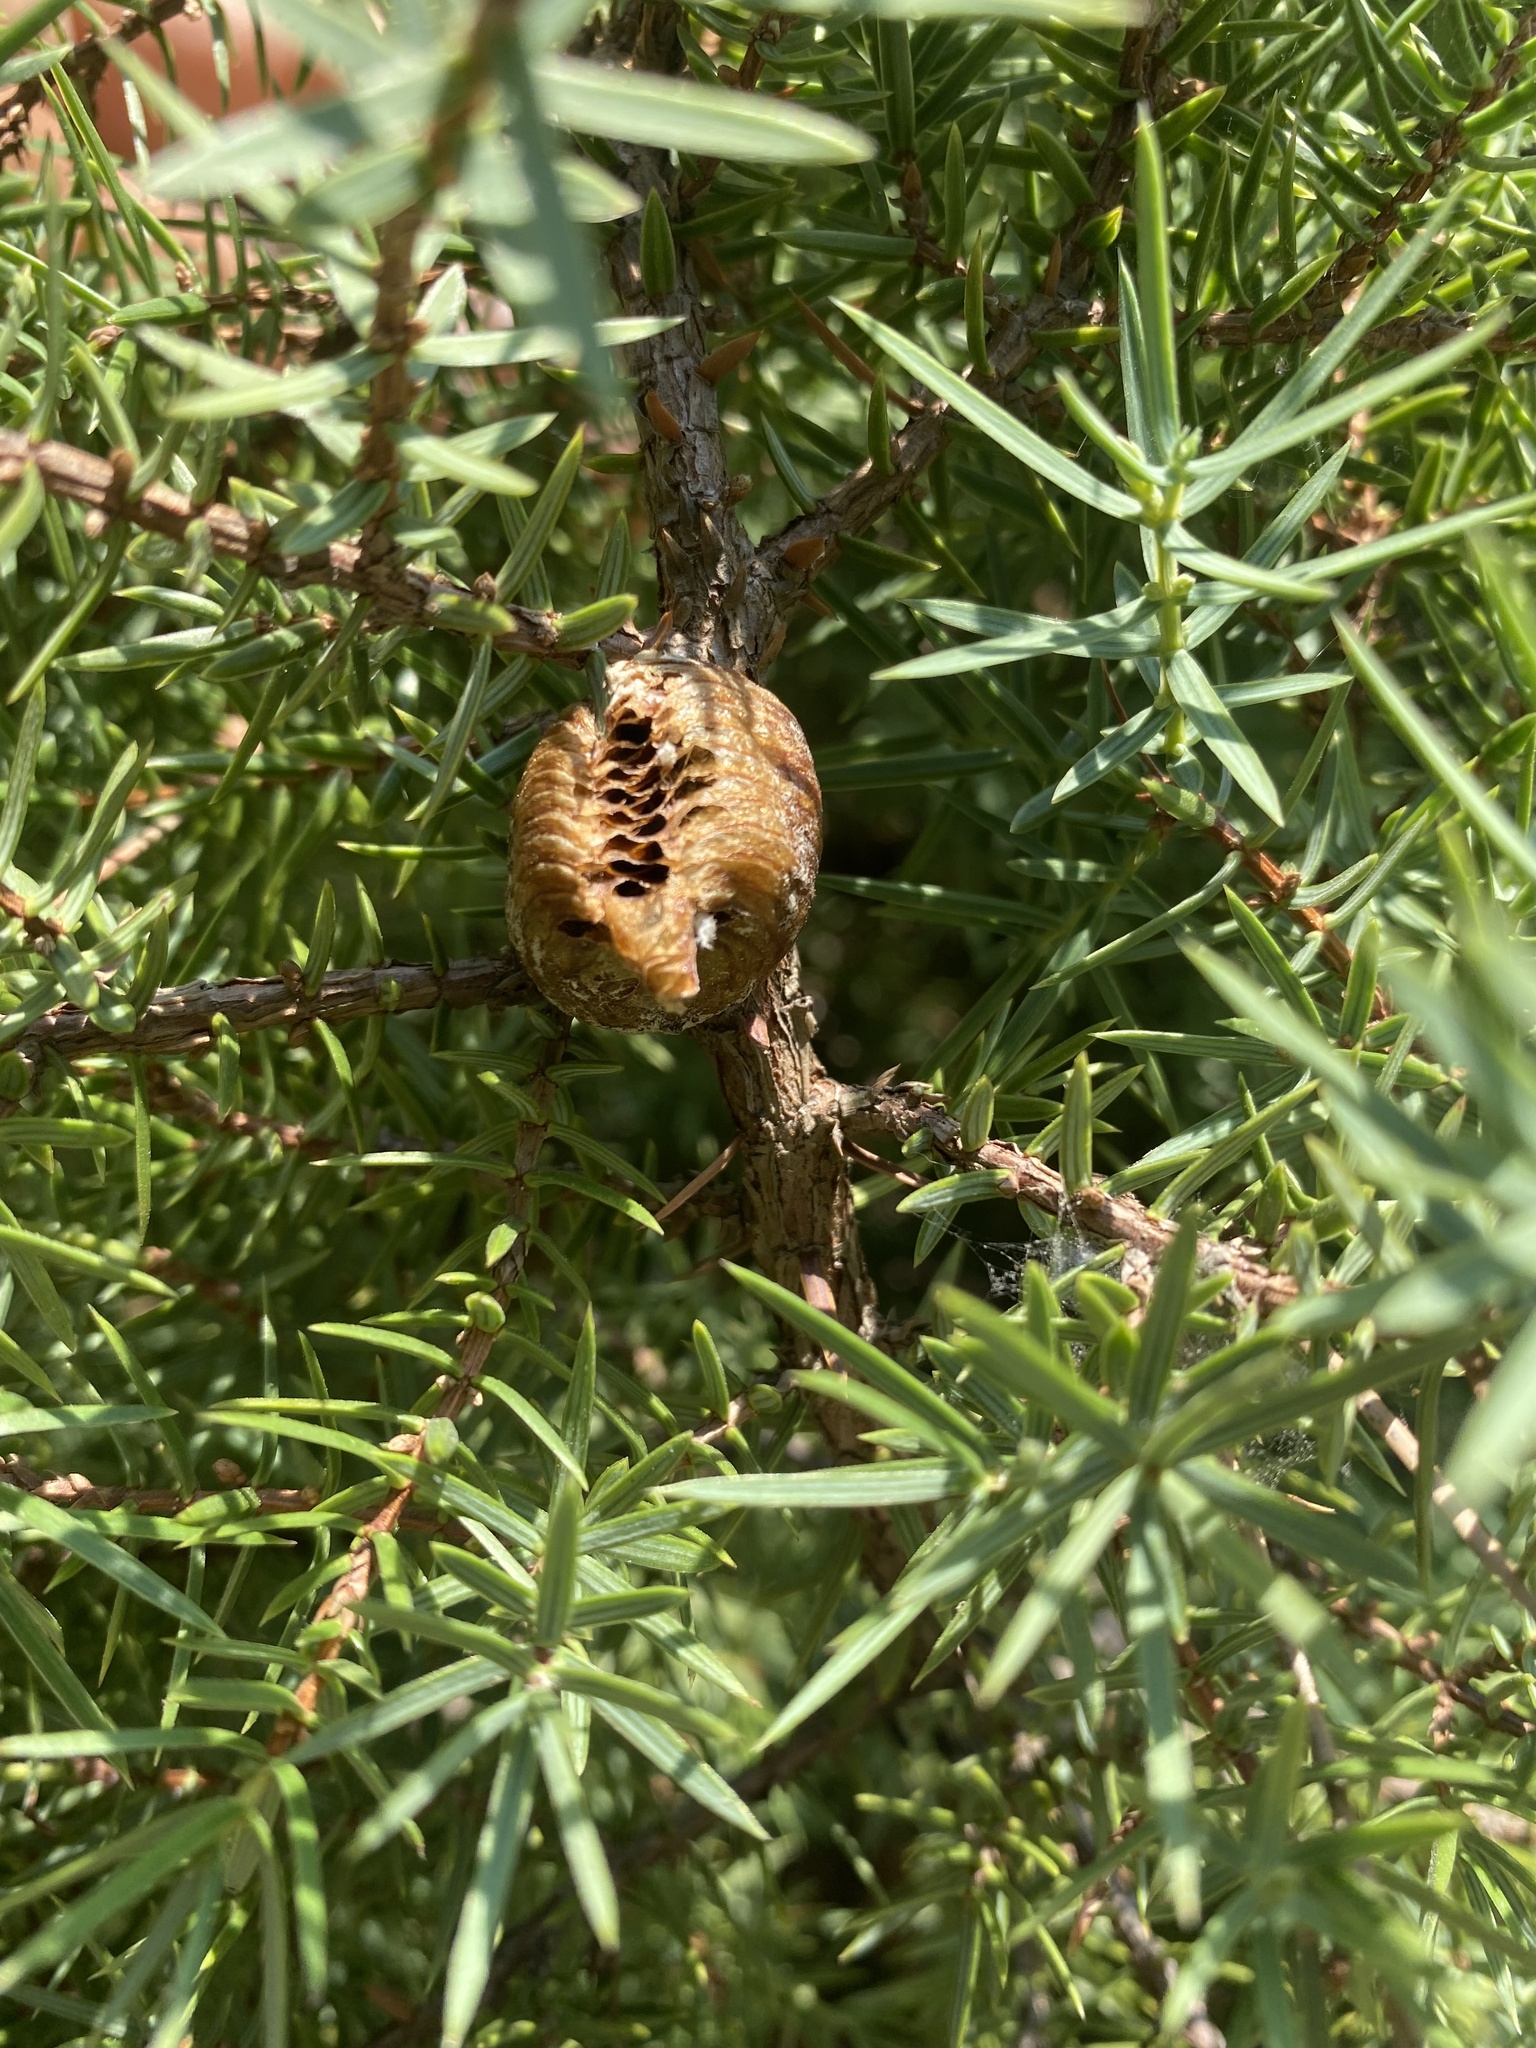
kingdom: Animalia
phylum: Arthropoda
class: Insecta
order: Mantodea
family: Mantidae
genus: Hierodula
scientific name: Hierodula transcaucasica
